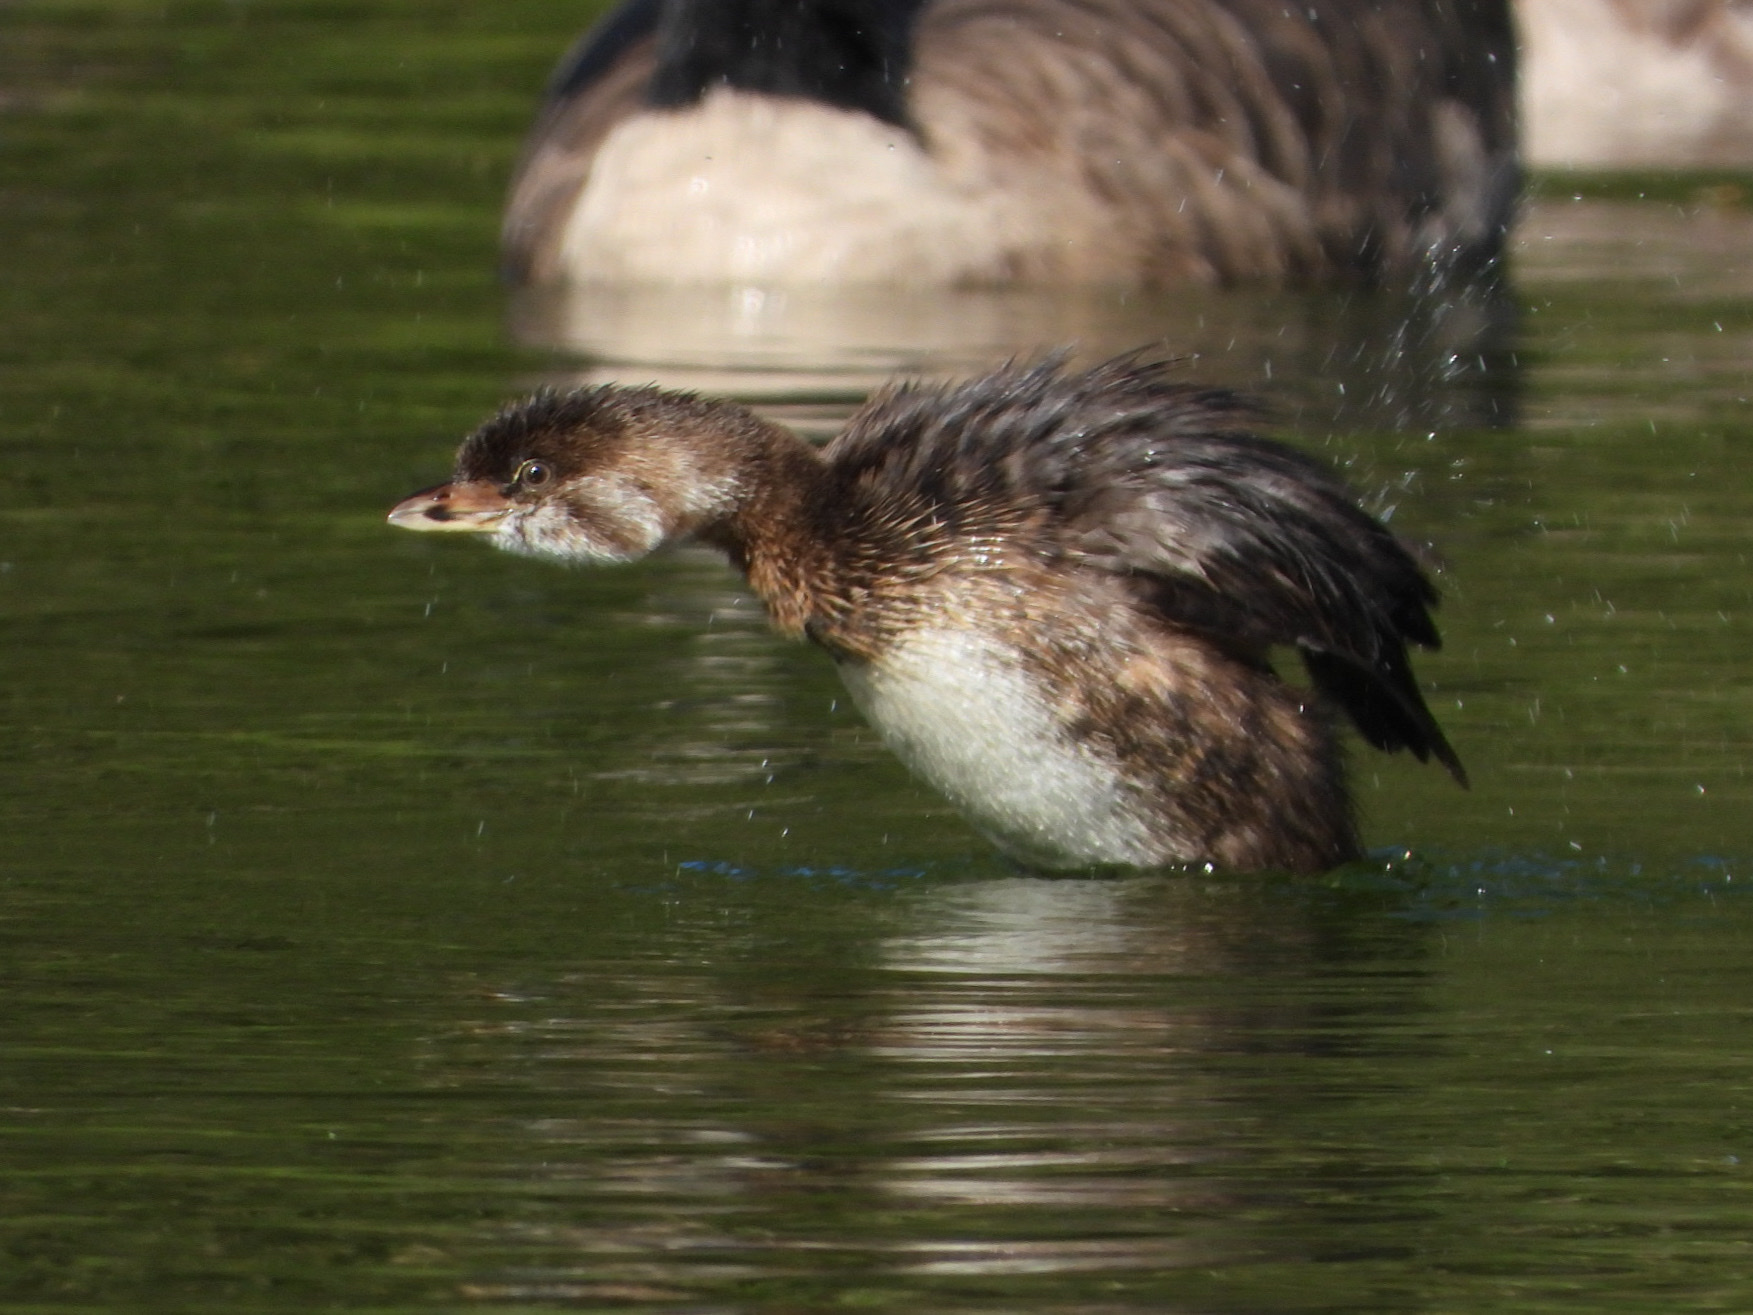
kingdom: Animalia
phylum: Chordata
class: Aves
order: Podicipediformes
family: Podicipedidae
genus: Podilymbus
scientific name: Podilymbus podiceps
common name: Pied-billed grebe
